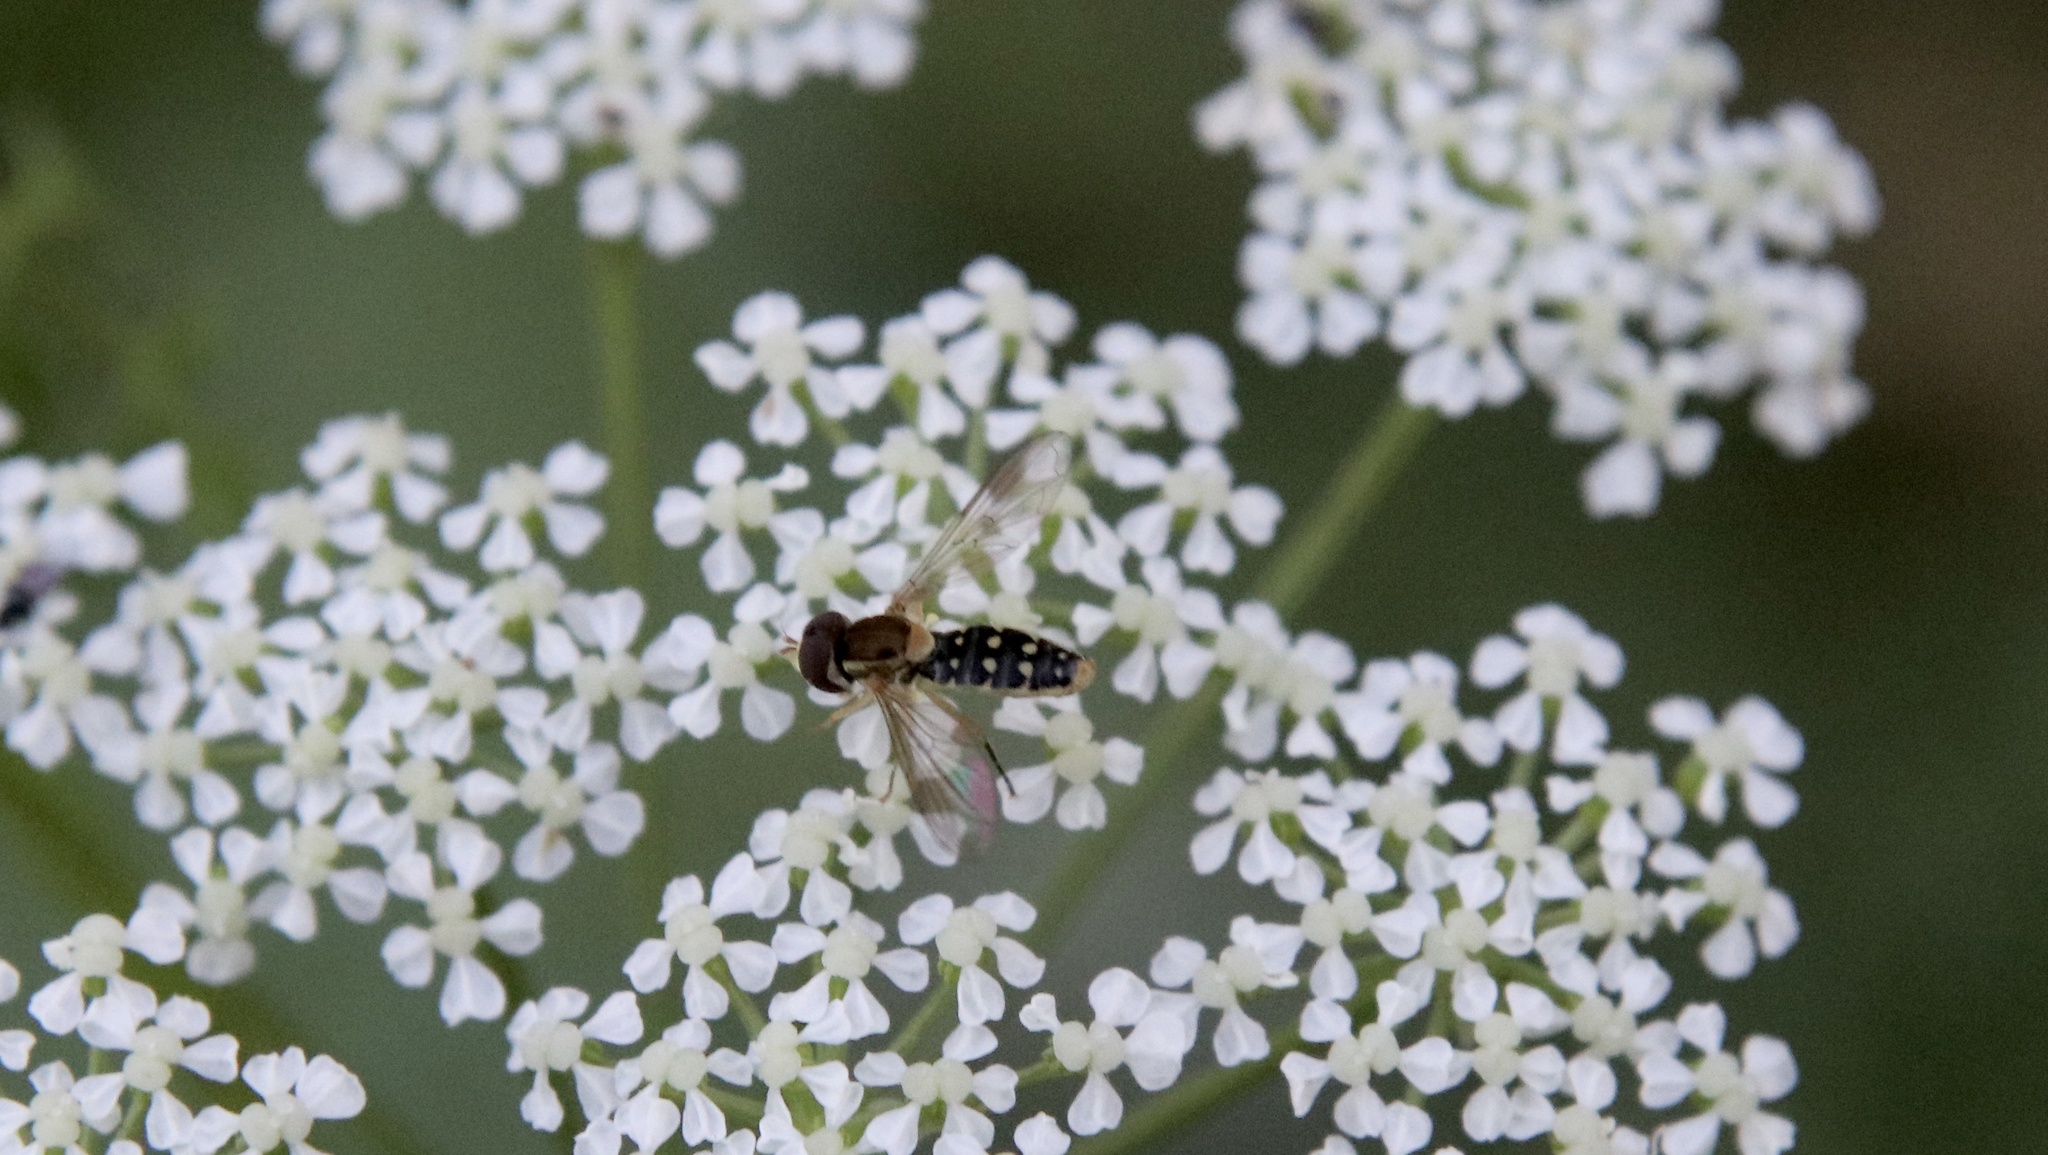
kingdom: Animalia
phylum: Arthropoda
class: Insecta
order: Diptera
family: Syrphidae
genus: Toxomerus
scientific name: Toxomerus vertebratus
